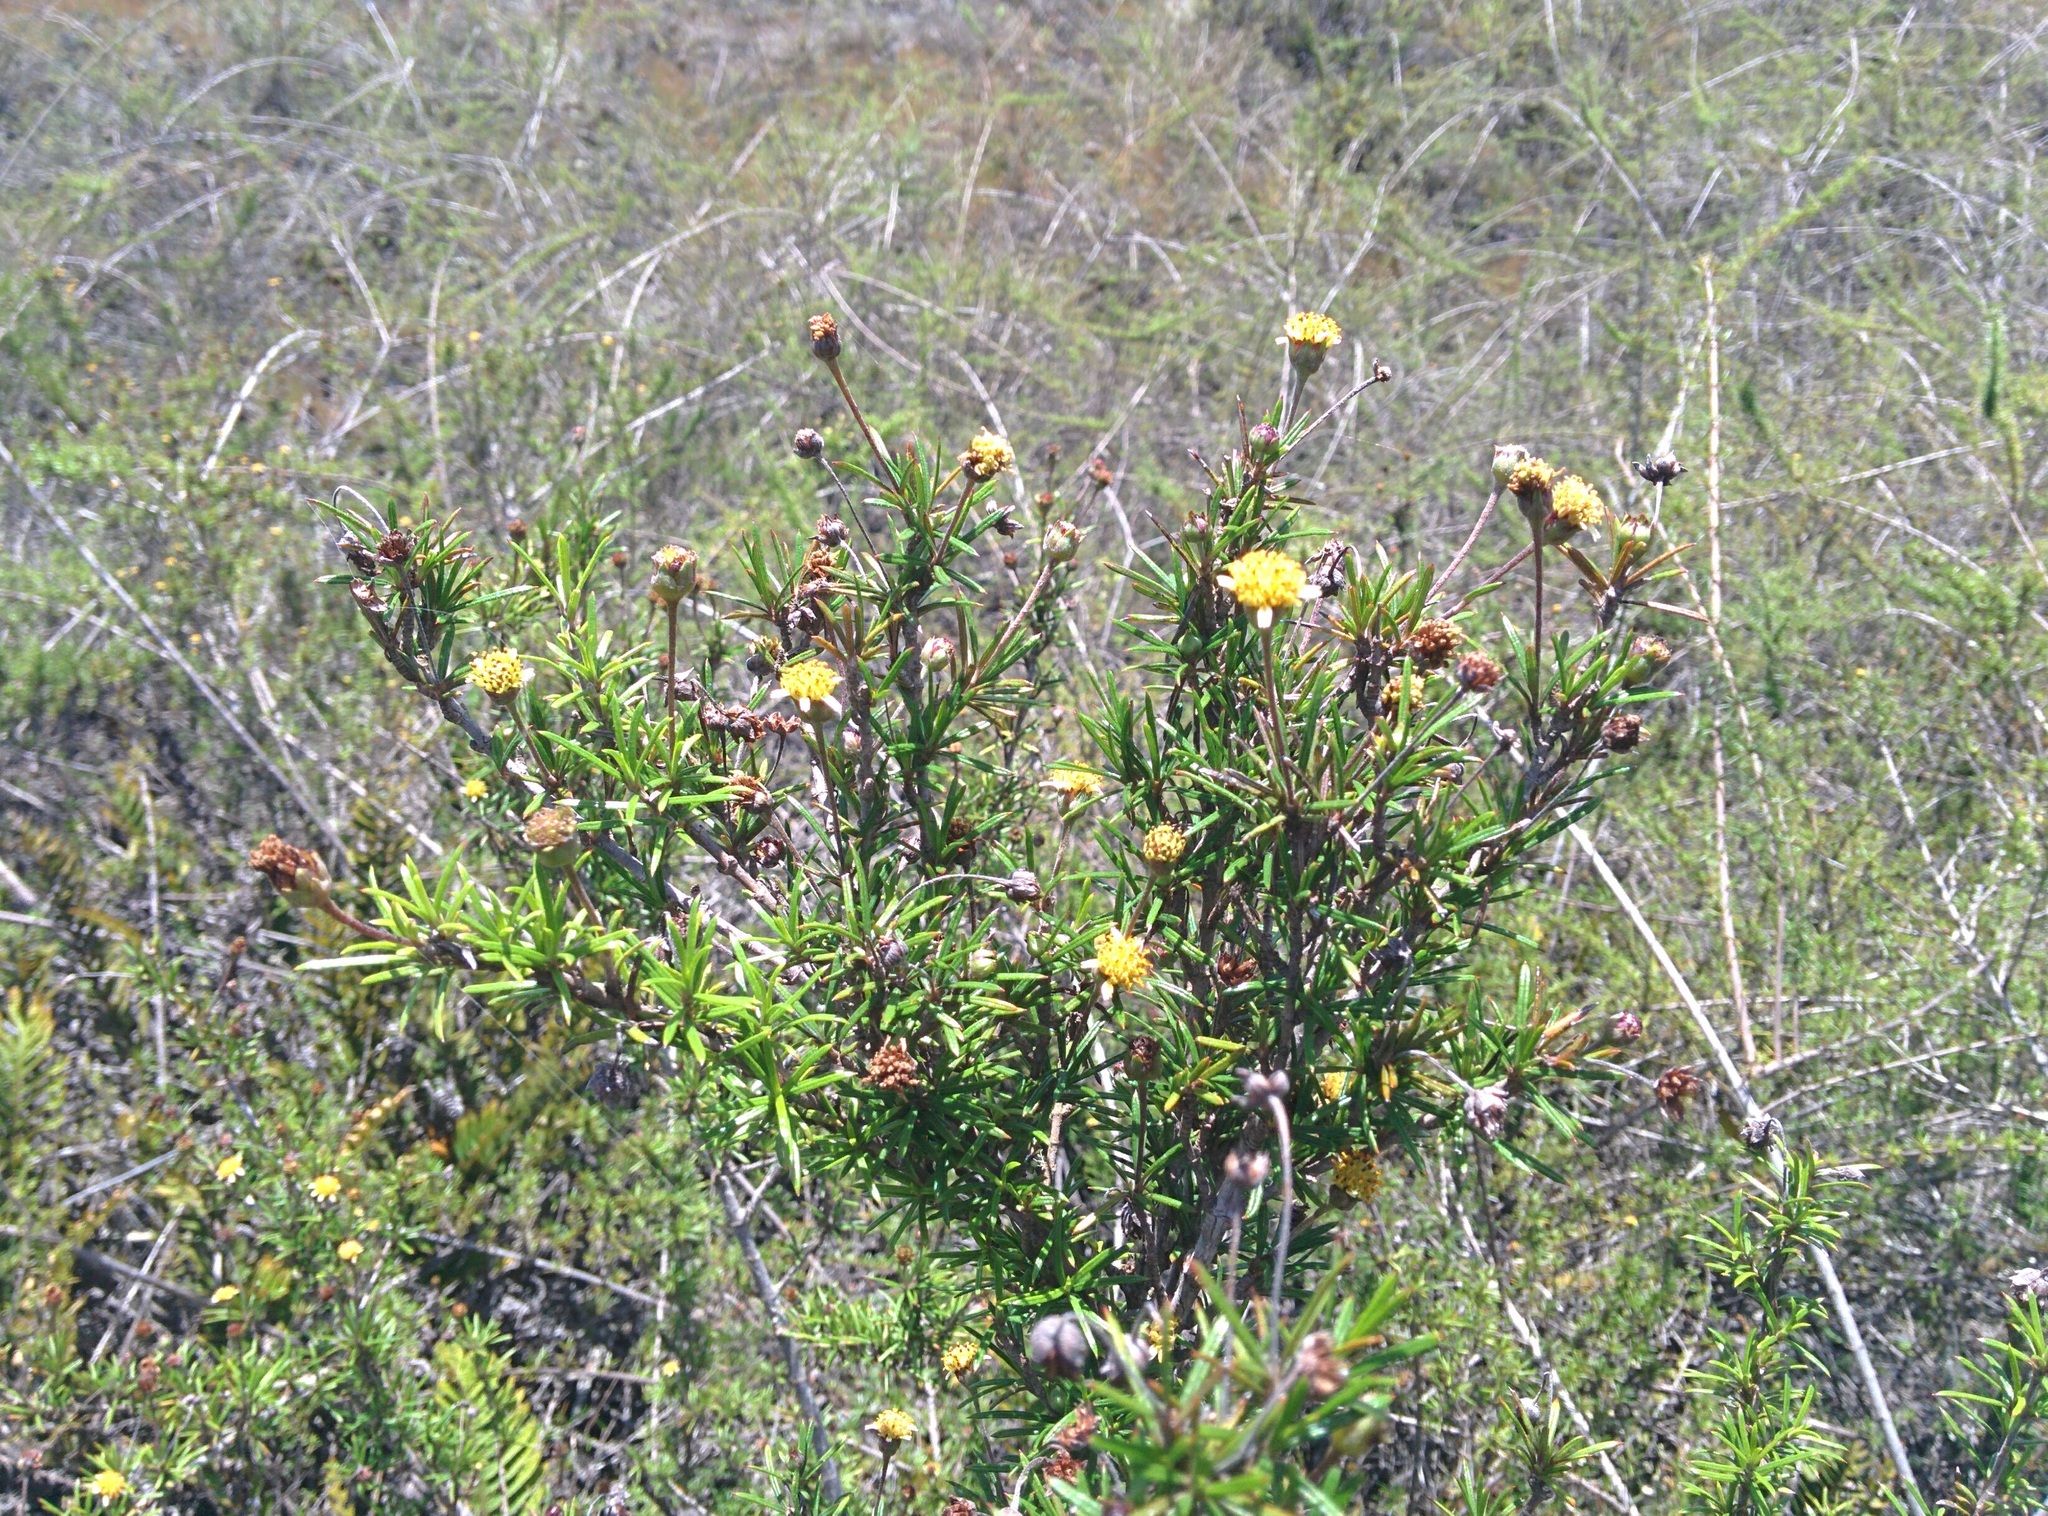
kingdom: Plantae
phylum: Tracheophyta
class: Magnoliopsida
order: Asterales
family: Asteraceae
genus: Trigonopterum
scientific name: Trigonopterum laricifolium
